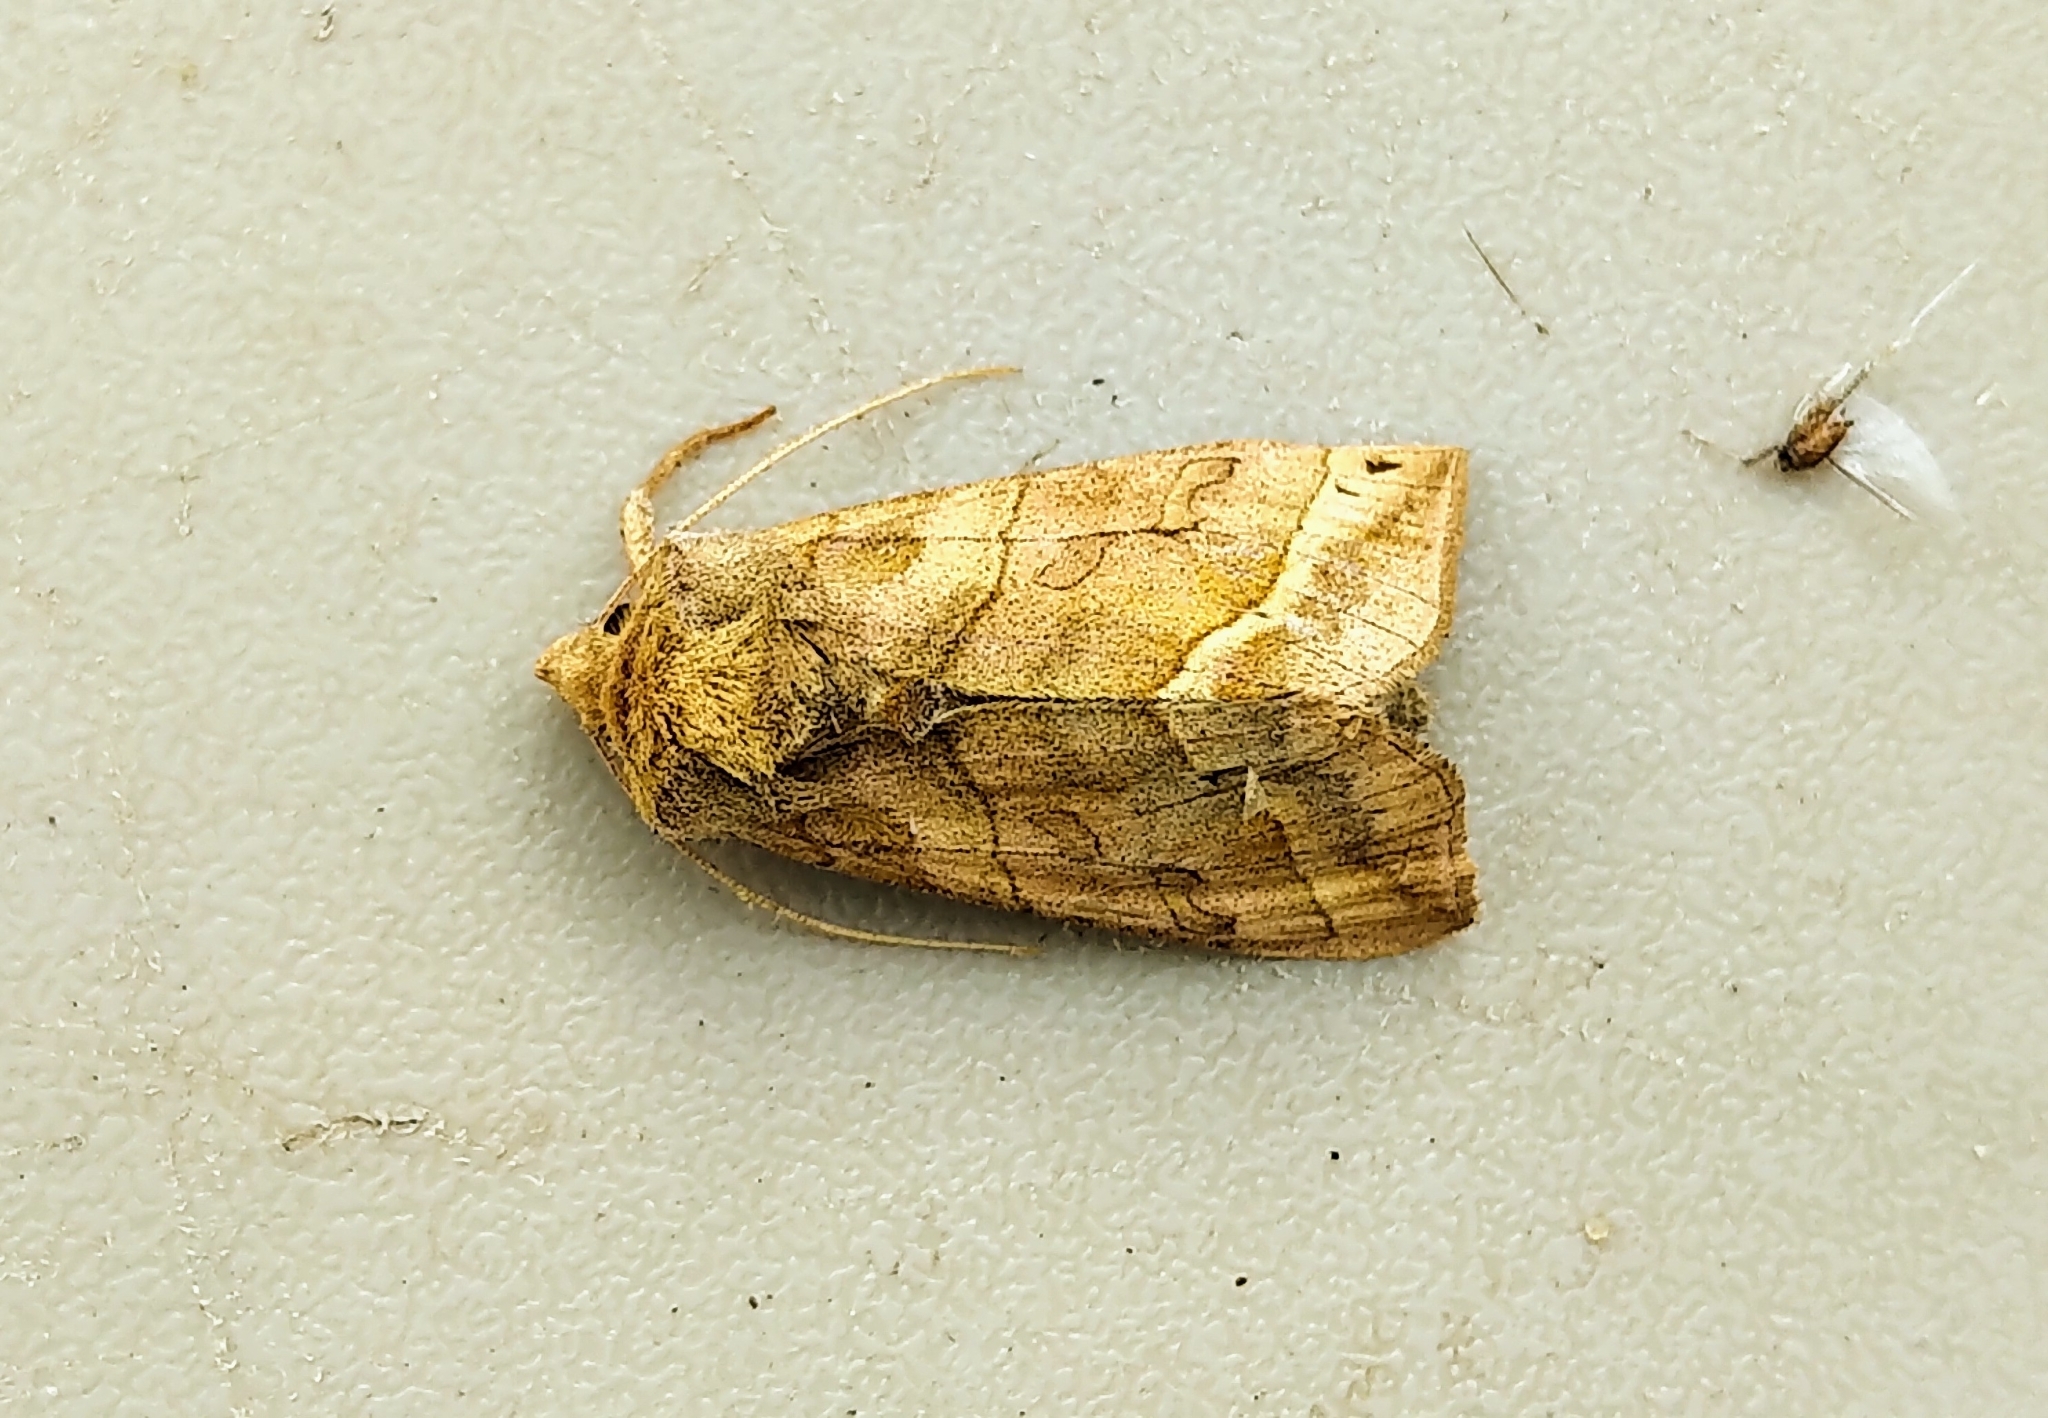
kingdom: Animalia
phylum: Arthropoda
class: Insecta
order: Lepidoptera
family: Noctuidae
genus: Diachrysia
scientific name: Diachrysia aereoides
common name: Dark-spotted looper moth
